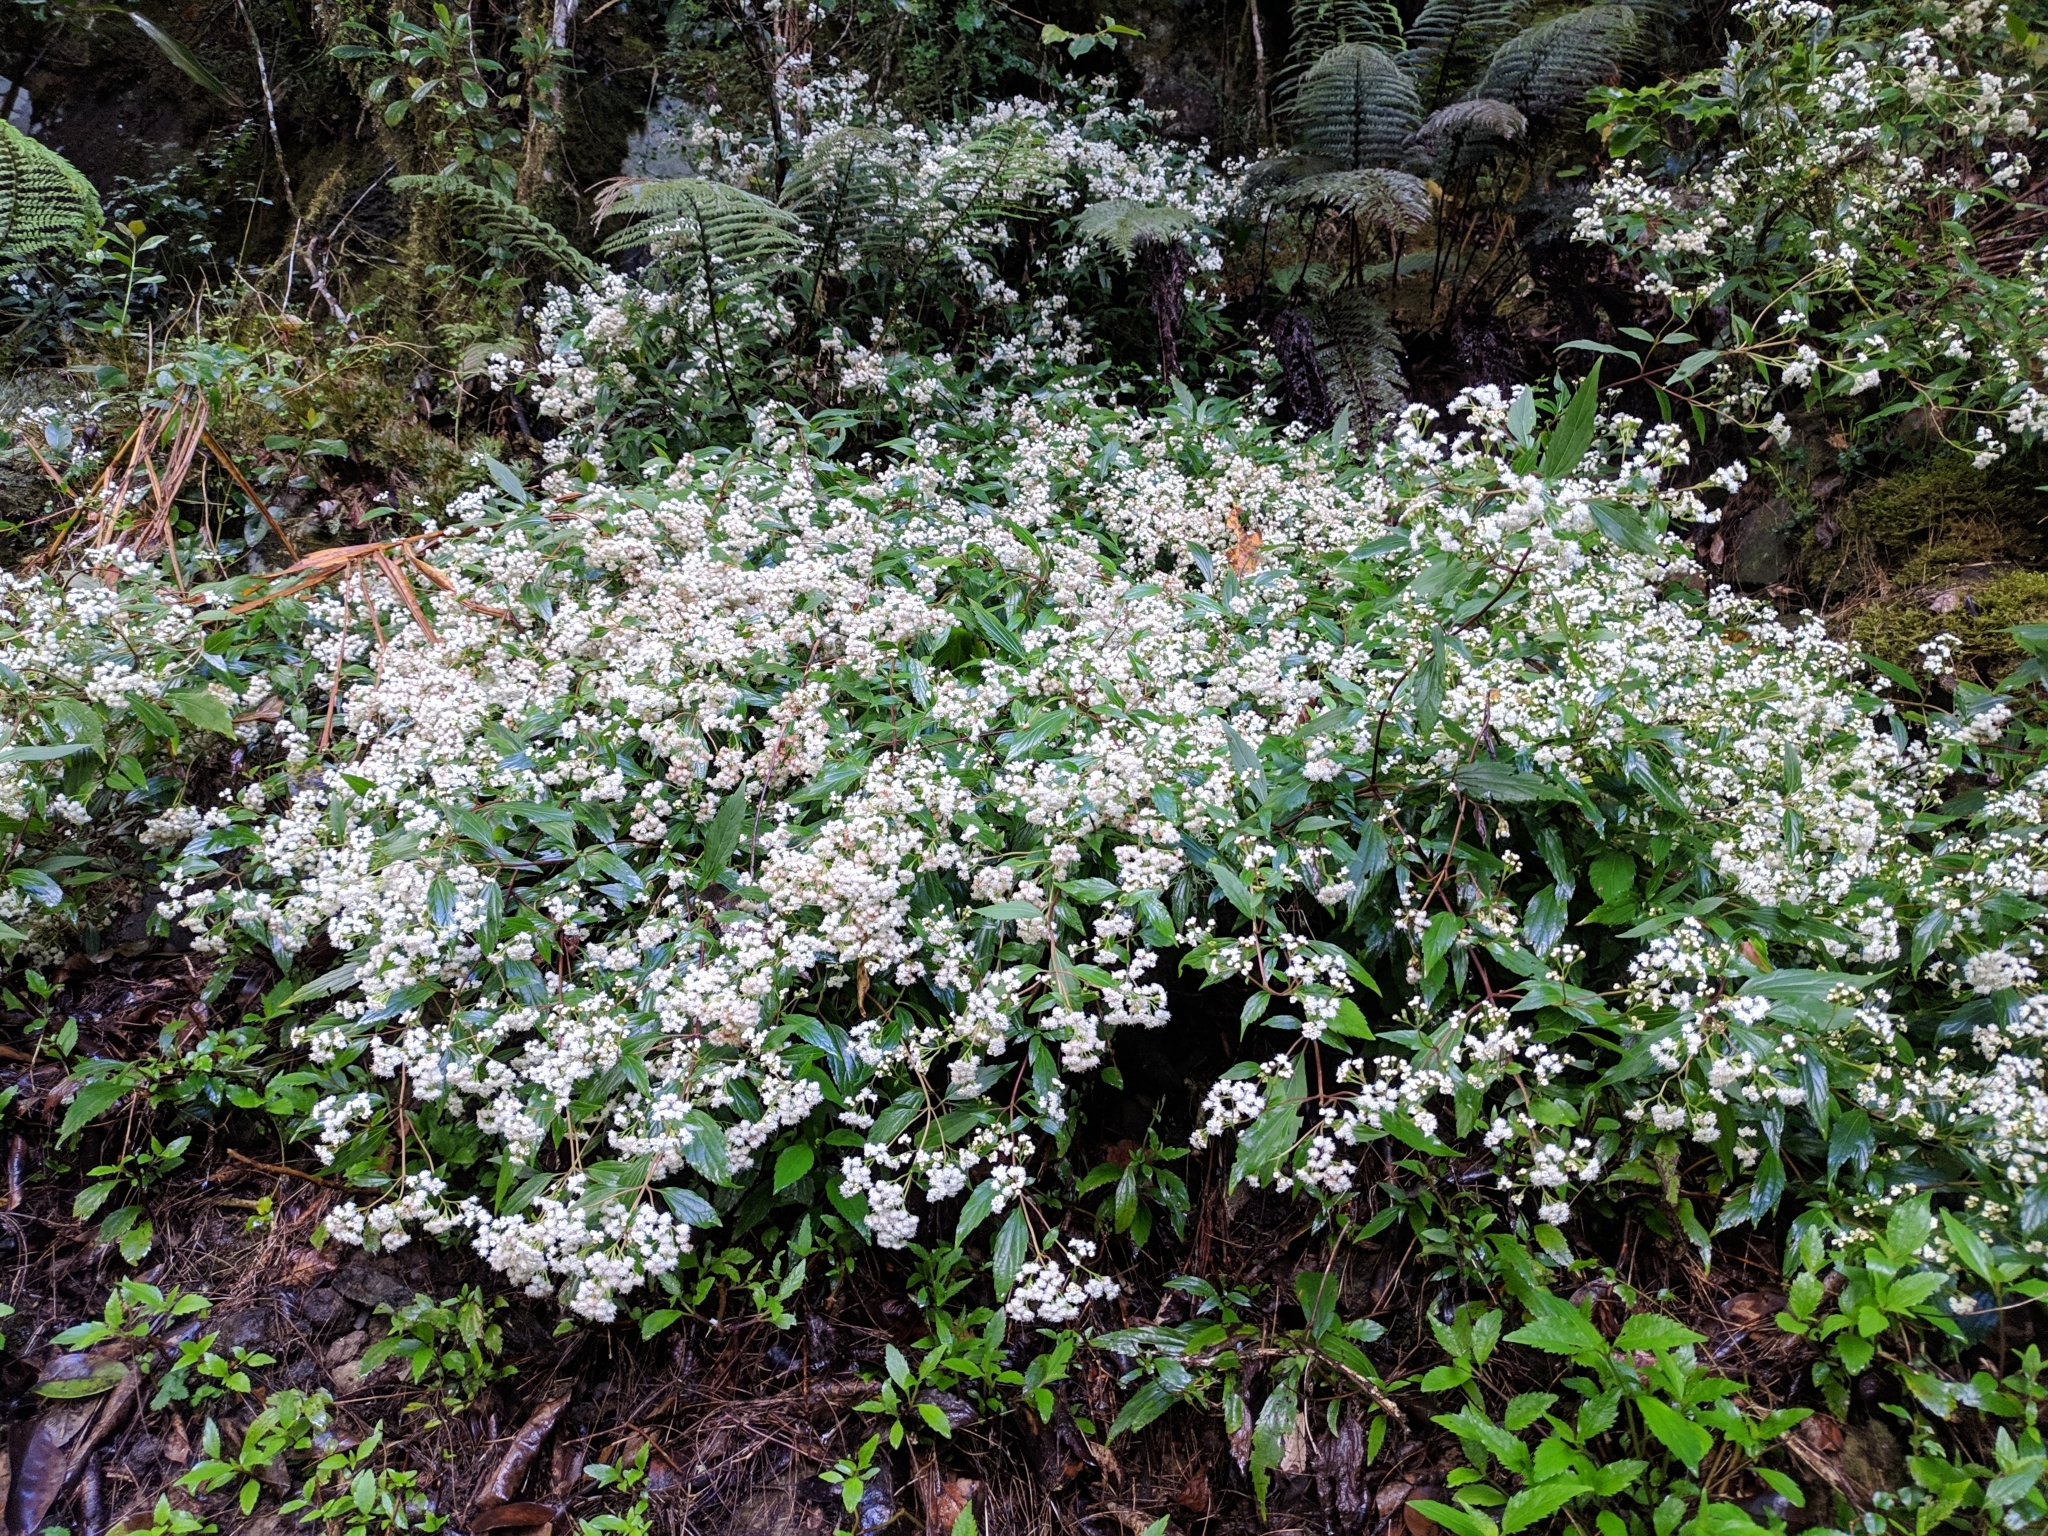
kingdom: Plantae
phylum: Tracheophyta
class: Magnoliopsida
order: Asterales
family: Asteraceae
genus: Ageratina
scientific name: Ageratina riparia
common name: Creeping croftonweed
